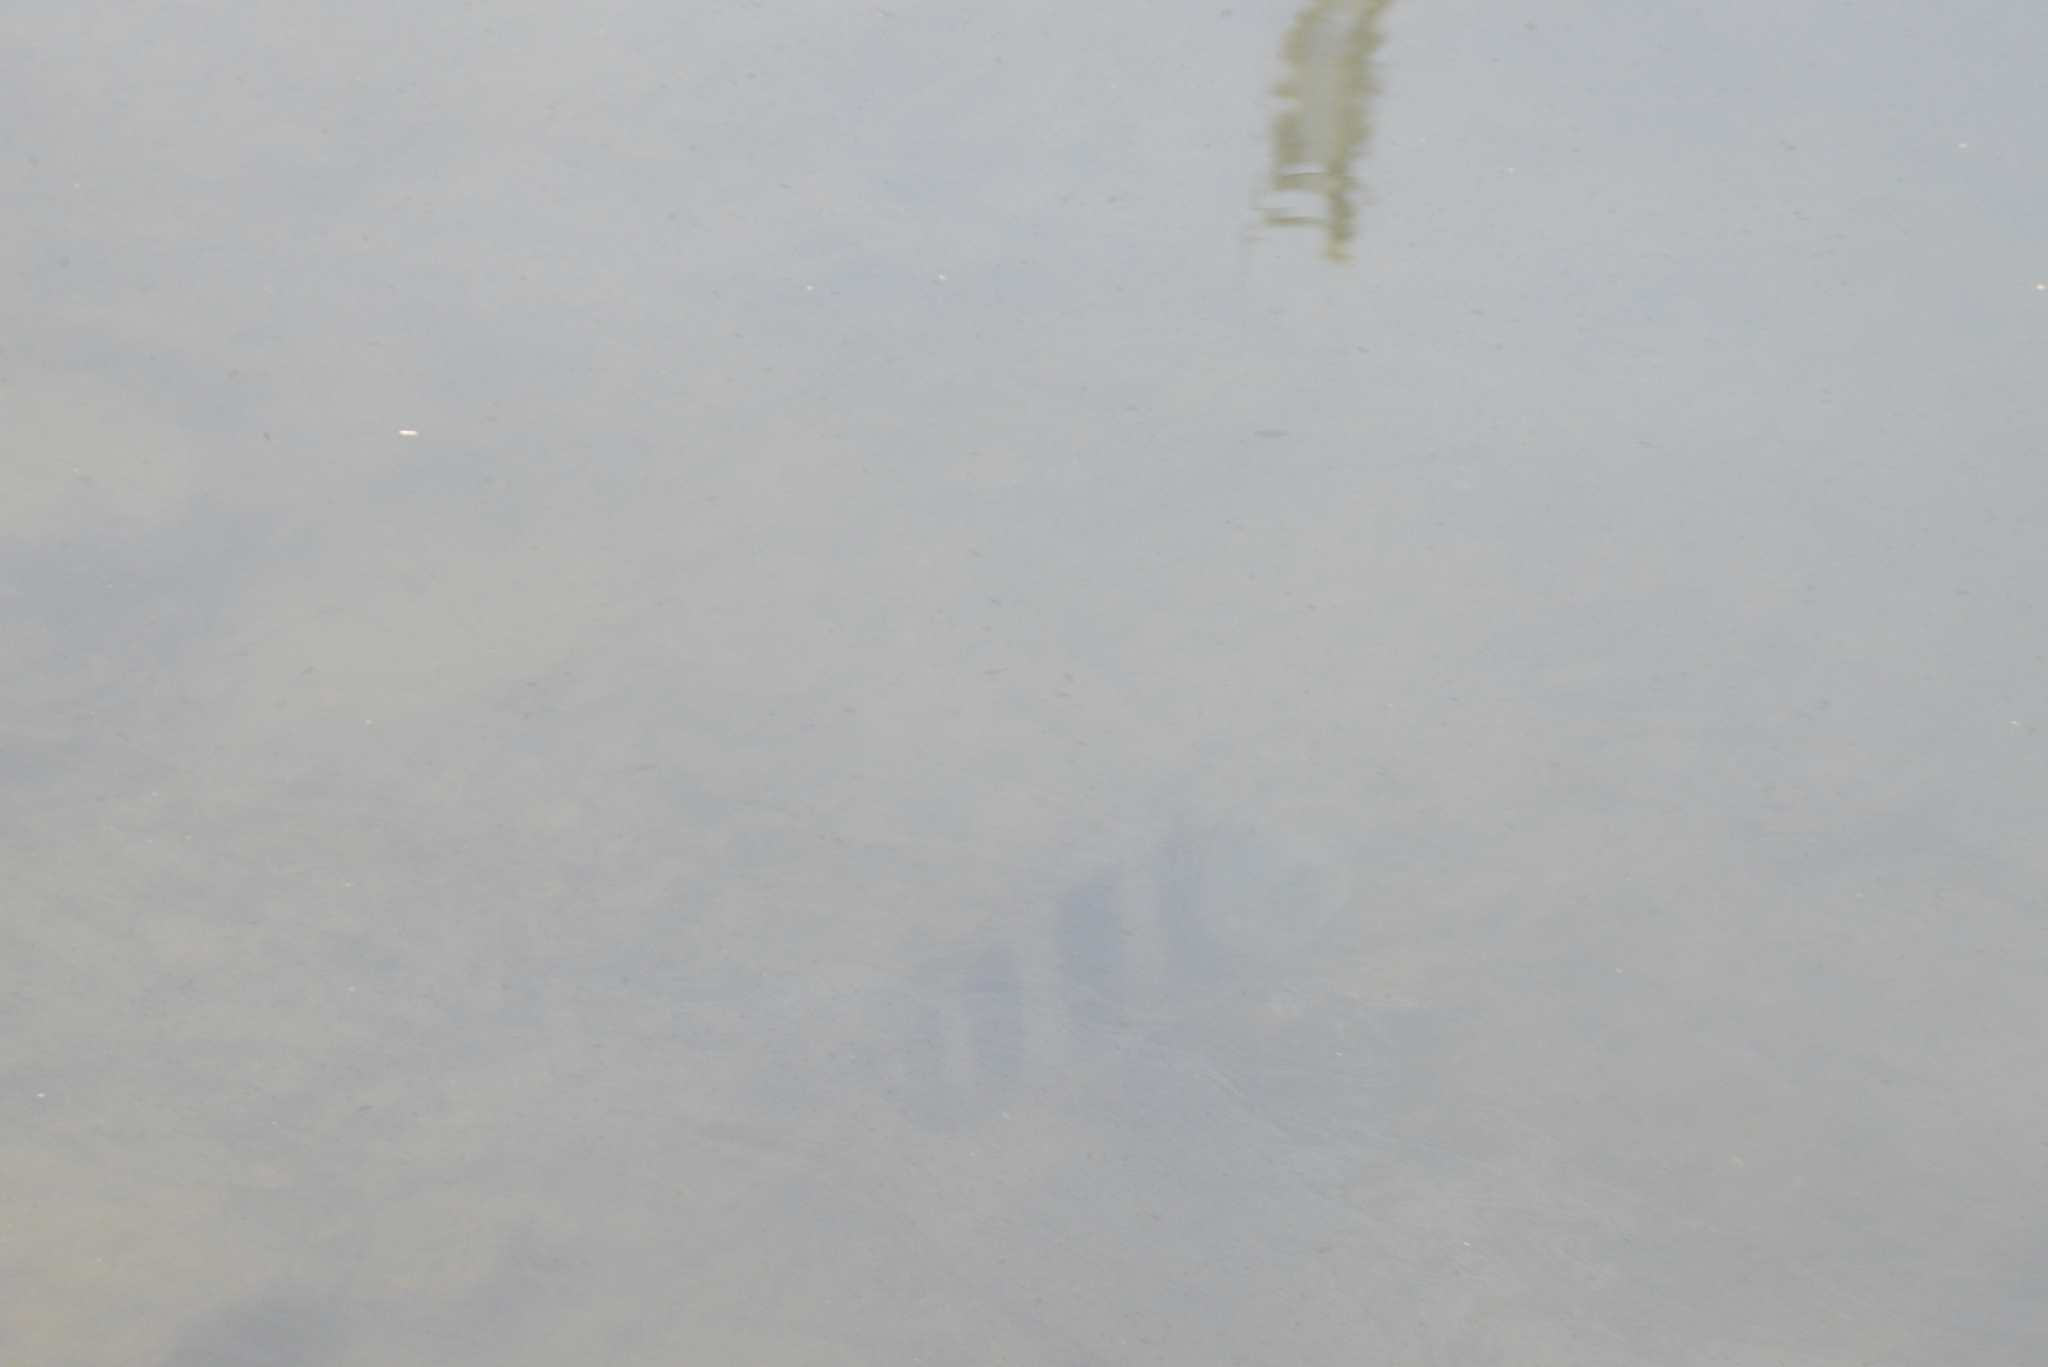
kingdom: Animalia
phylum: Chordata
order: Perciformes
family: Sparidae
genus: Archosargus
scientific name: Archosargus probatocephalus
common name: Sheepshead
